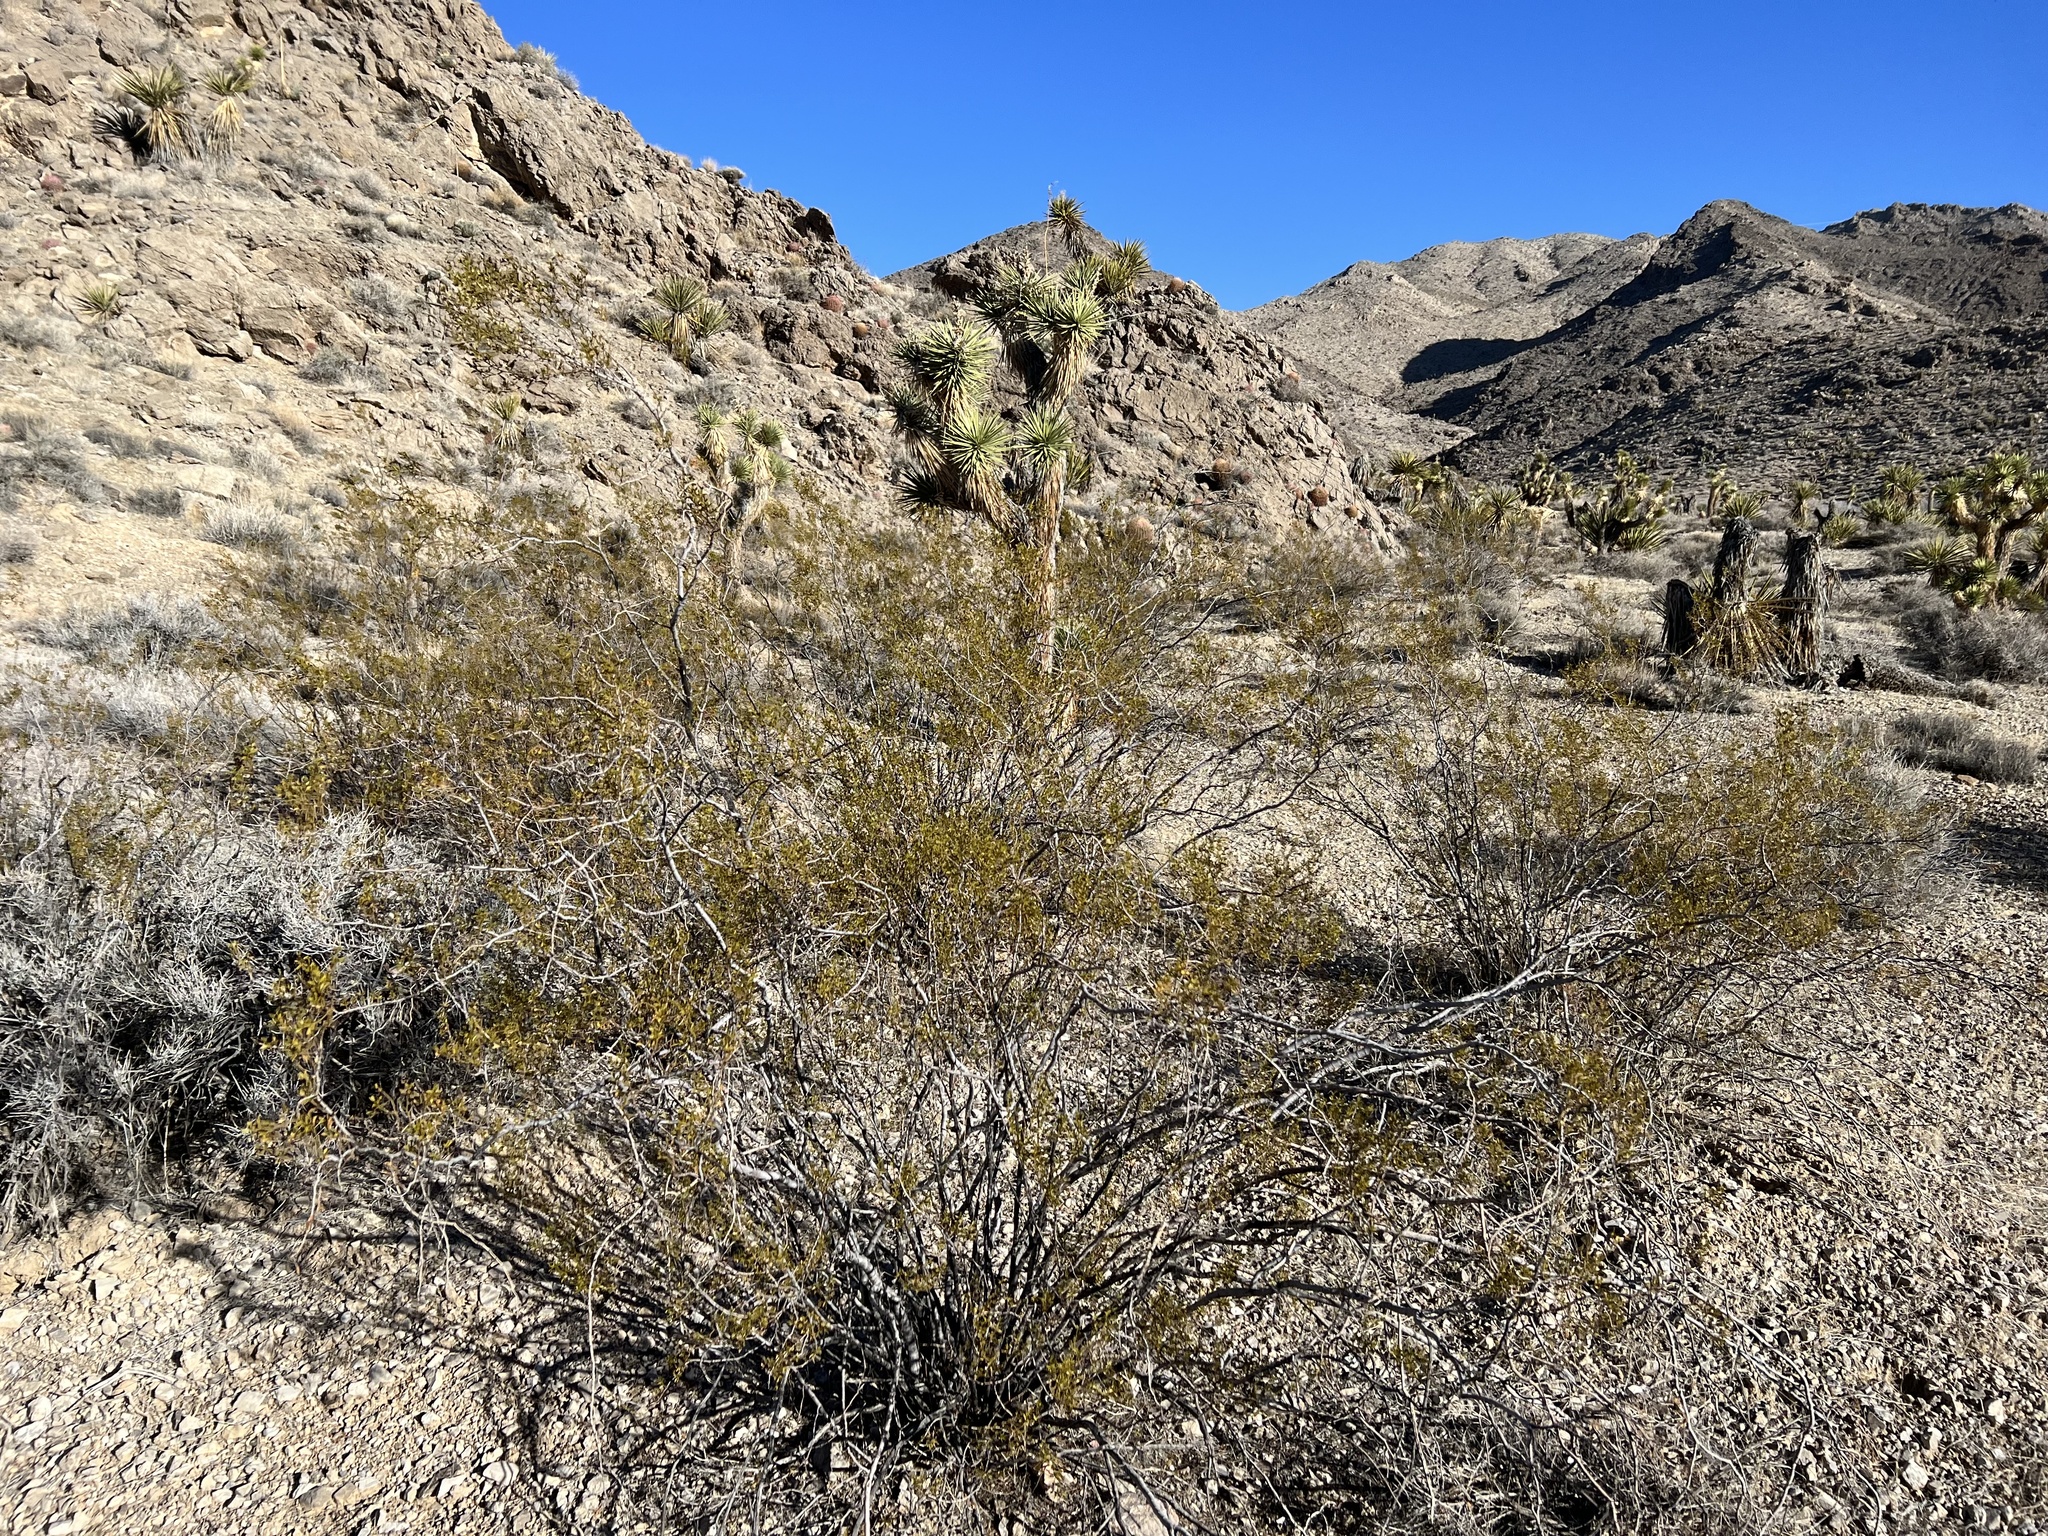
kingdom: Plantae
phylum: Tracheophyta
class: Magnoliopsida
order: Zygophyllales
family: Zygophyllaceae
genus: Larrea
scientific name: Larrea tridentata
